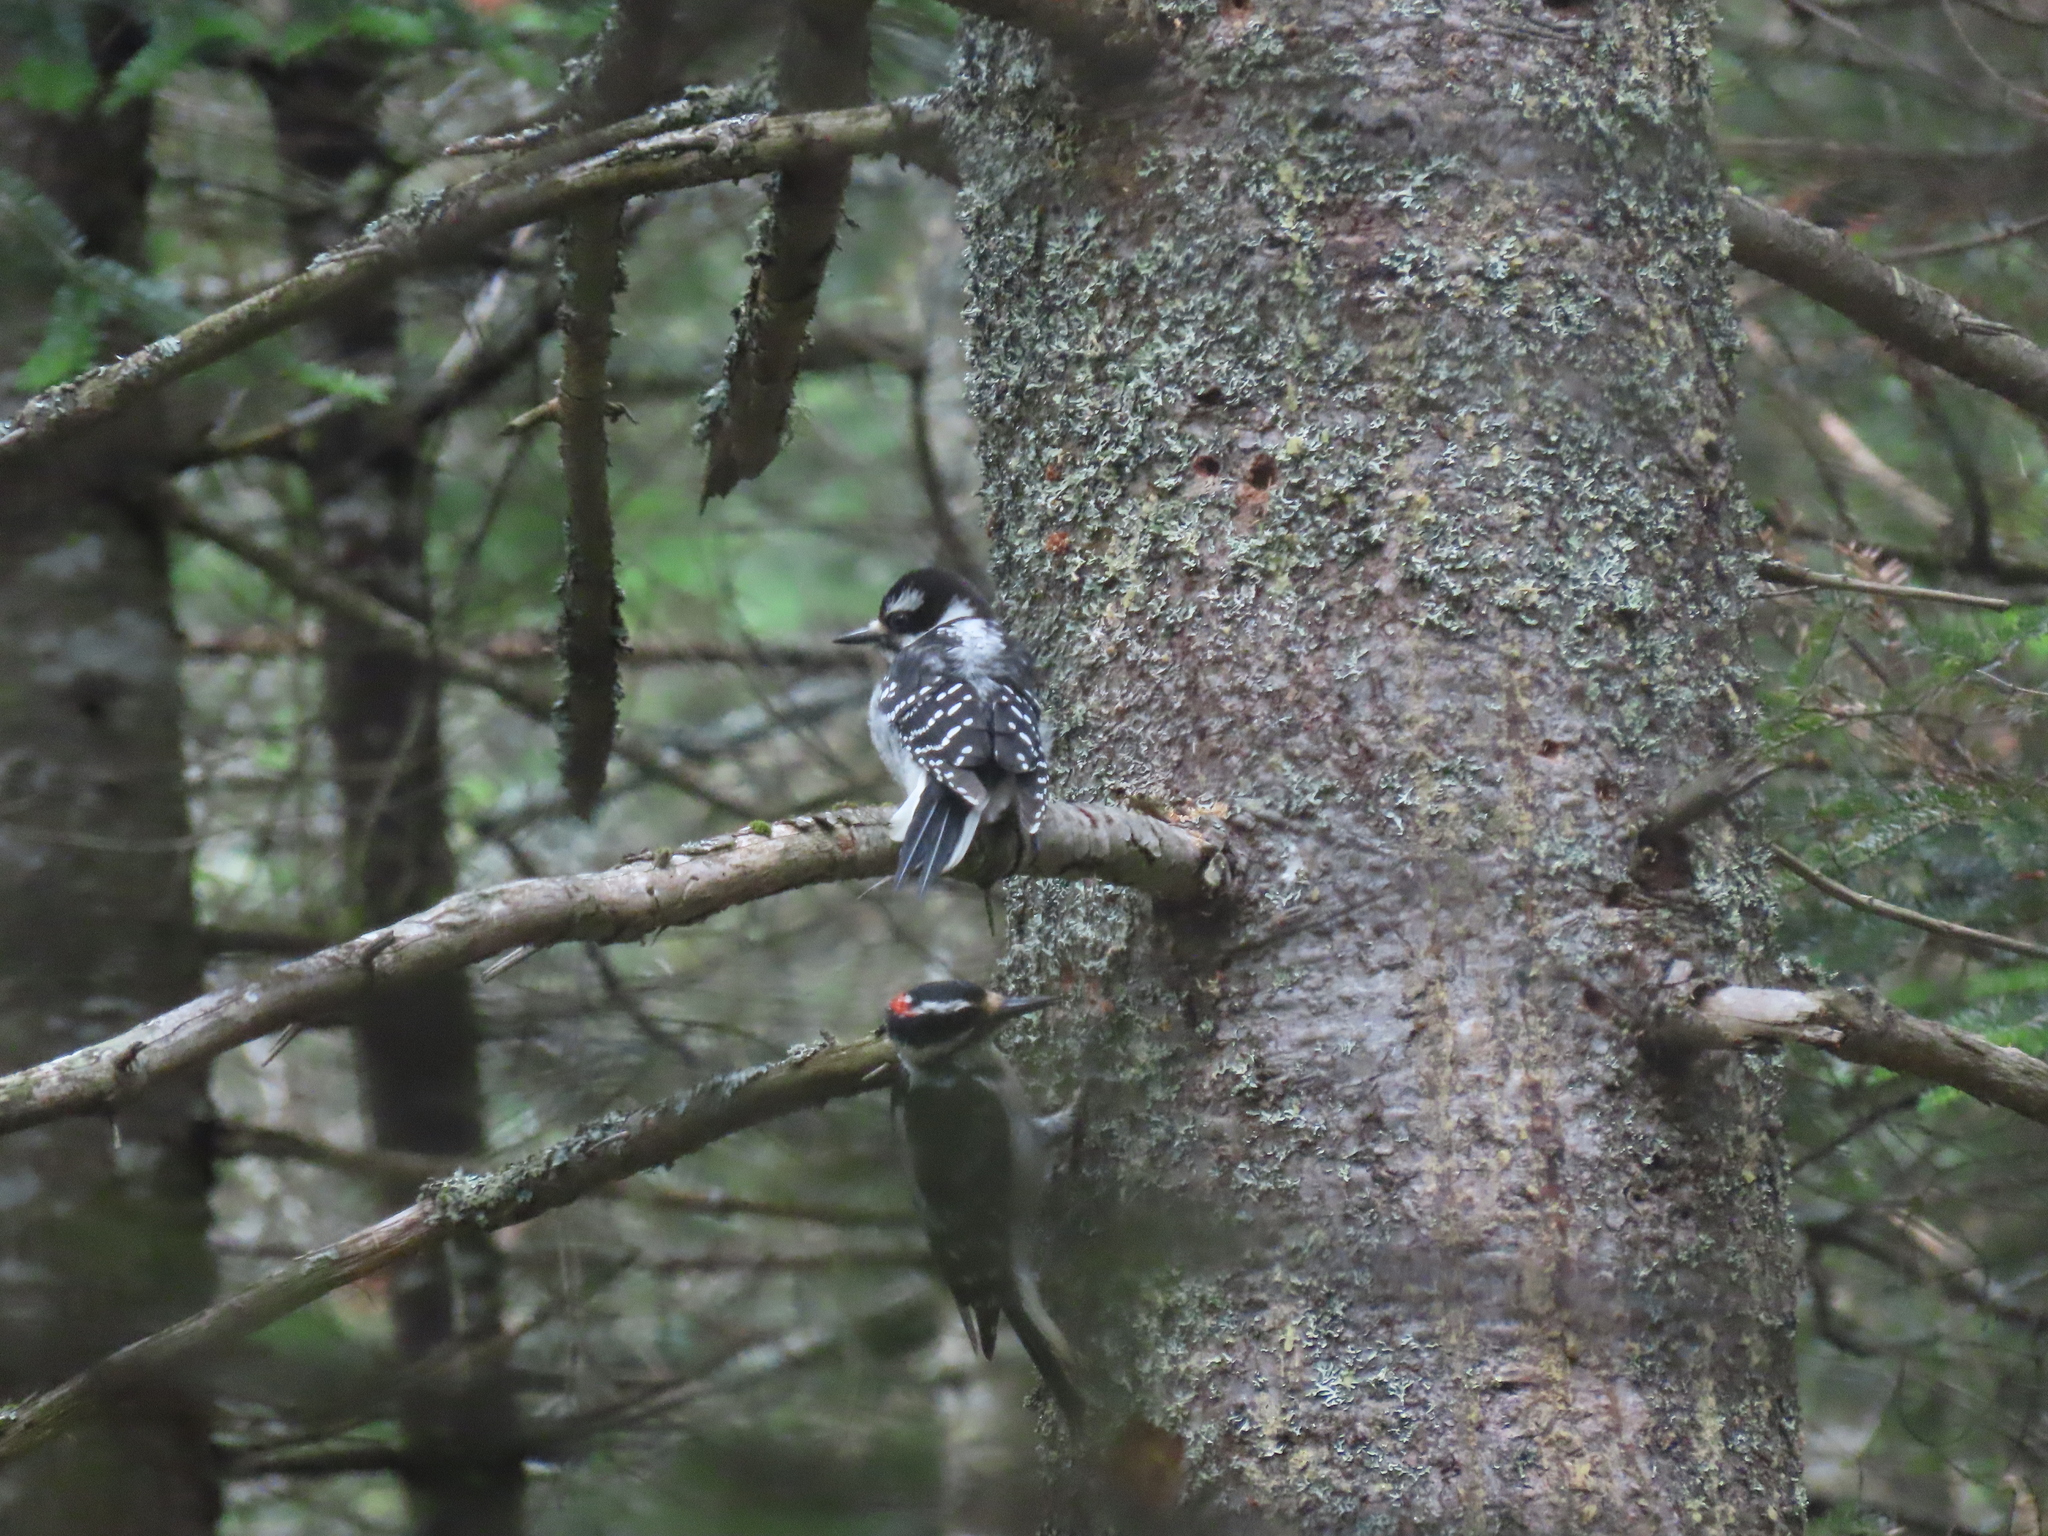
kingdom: Animalia
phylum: Chordata
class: Aves
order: Piciformes
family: Picidae
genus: Leuconotopicus
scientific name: Leuconotopicus villosus
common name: Hairy woodpecker
